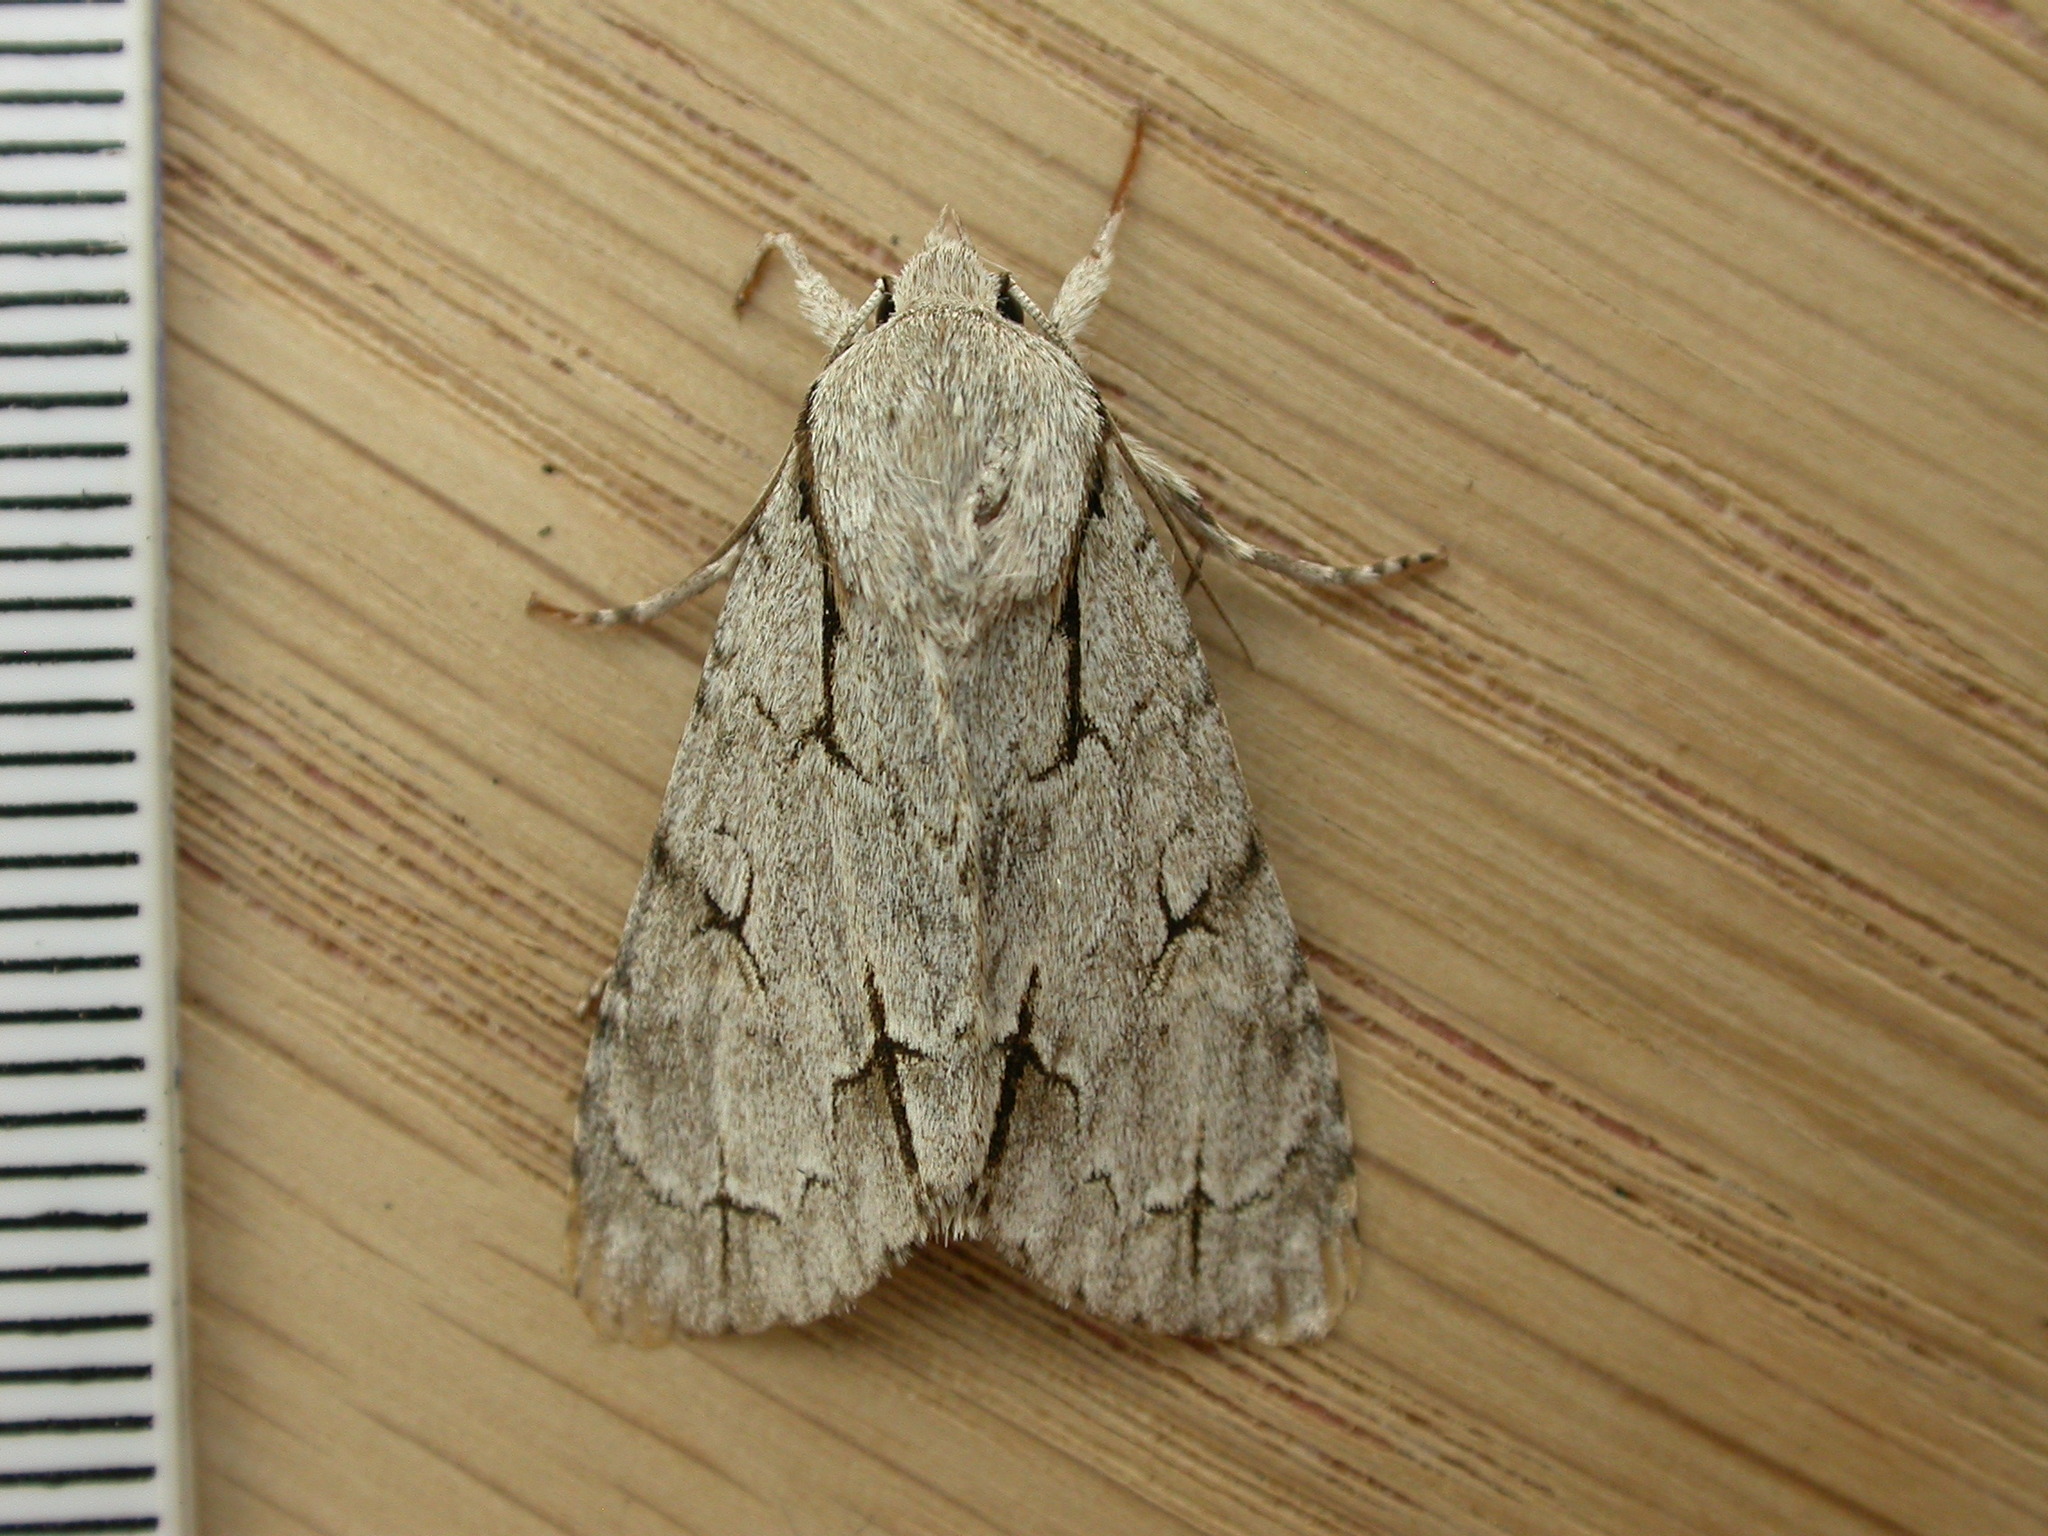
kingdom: Animalia
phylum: Arthropoda
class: Insecta
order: Lepidoptera
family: Noctuidae
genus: Acronicta
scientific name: Acronicta psi
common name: Grey dagger
